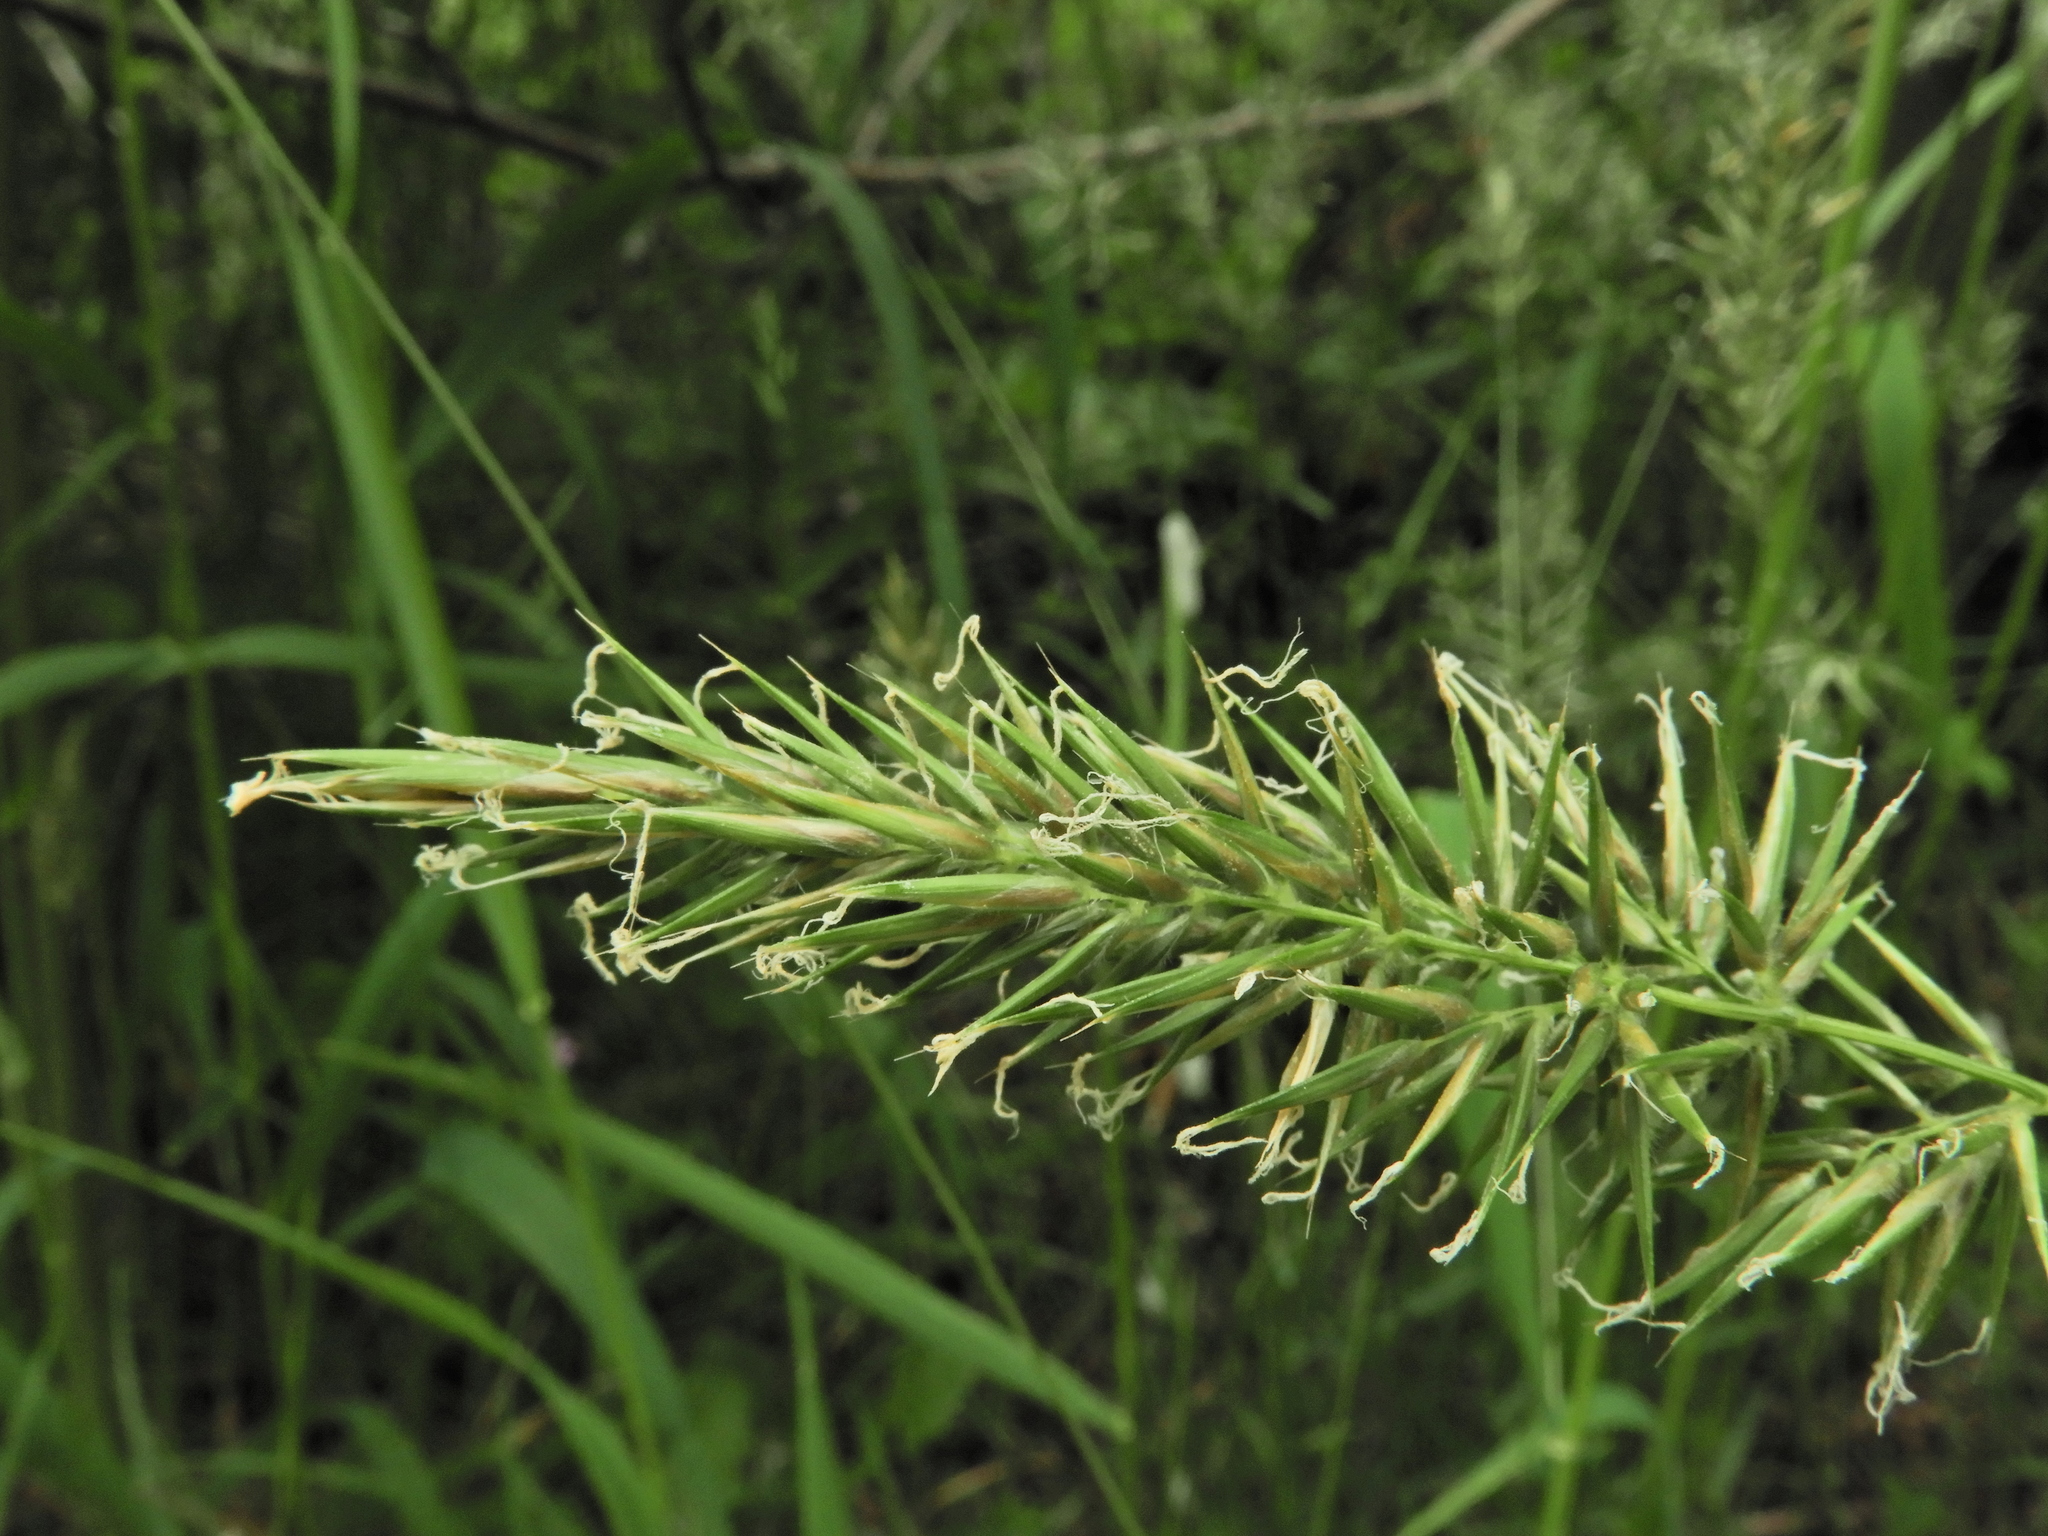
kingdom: Plantae
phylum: Tracheophyta
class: Liliopsida
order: Poales
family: Poaceae
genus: Anthoxanthum
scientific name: Anthoxanthum odoratum
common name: Sweet vernalgrass
